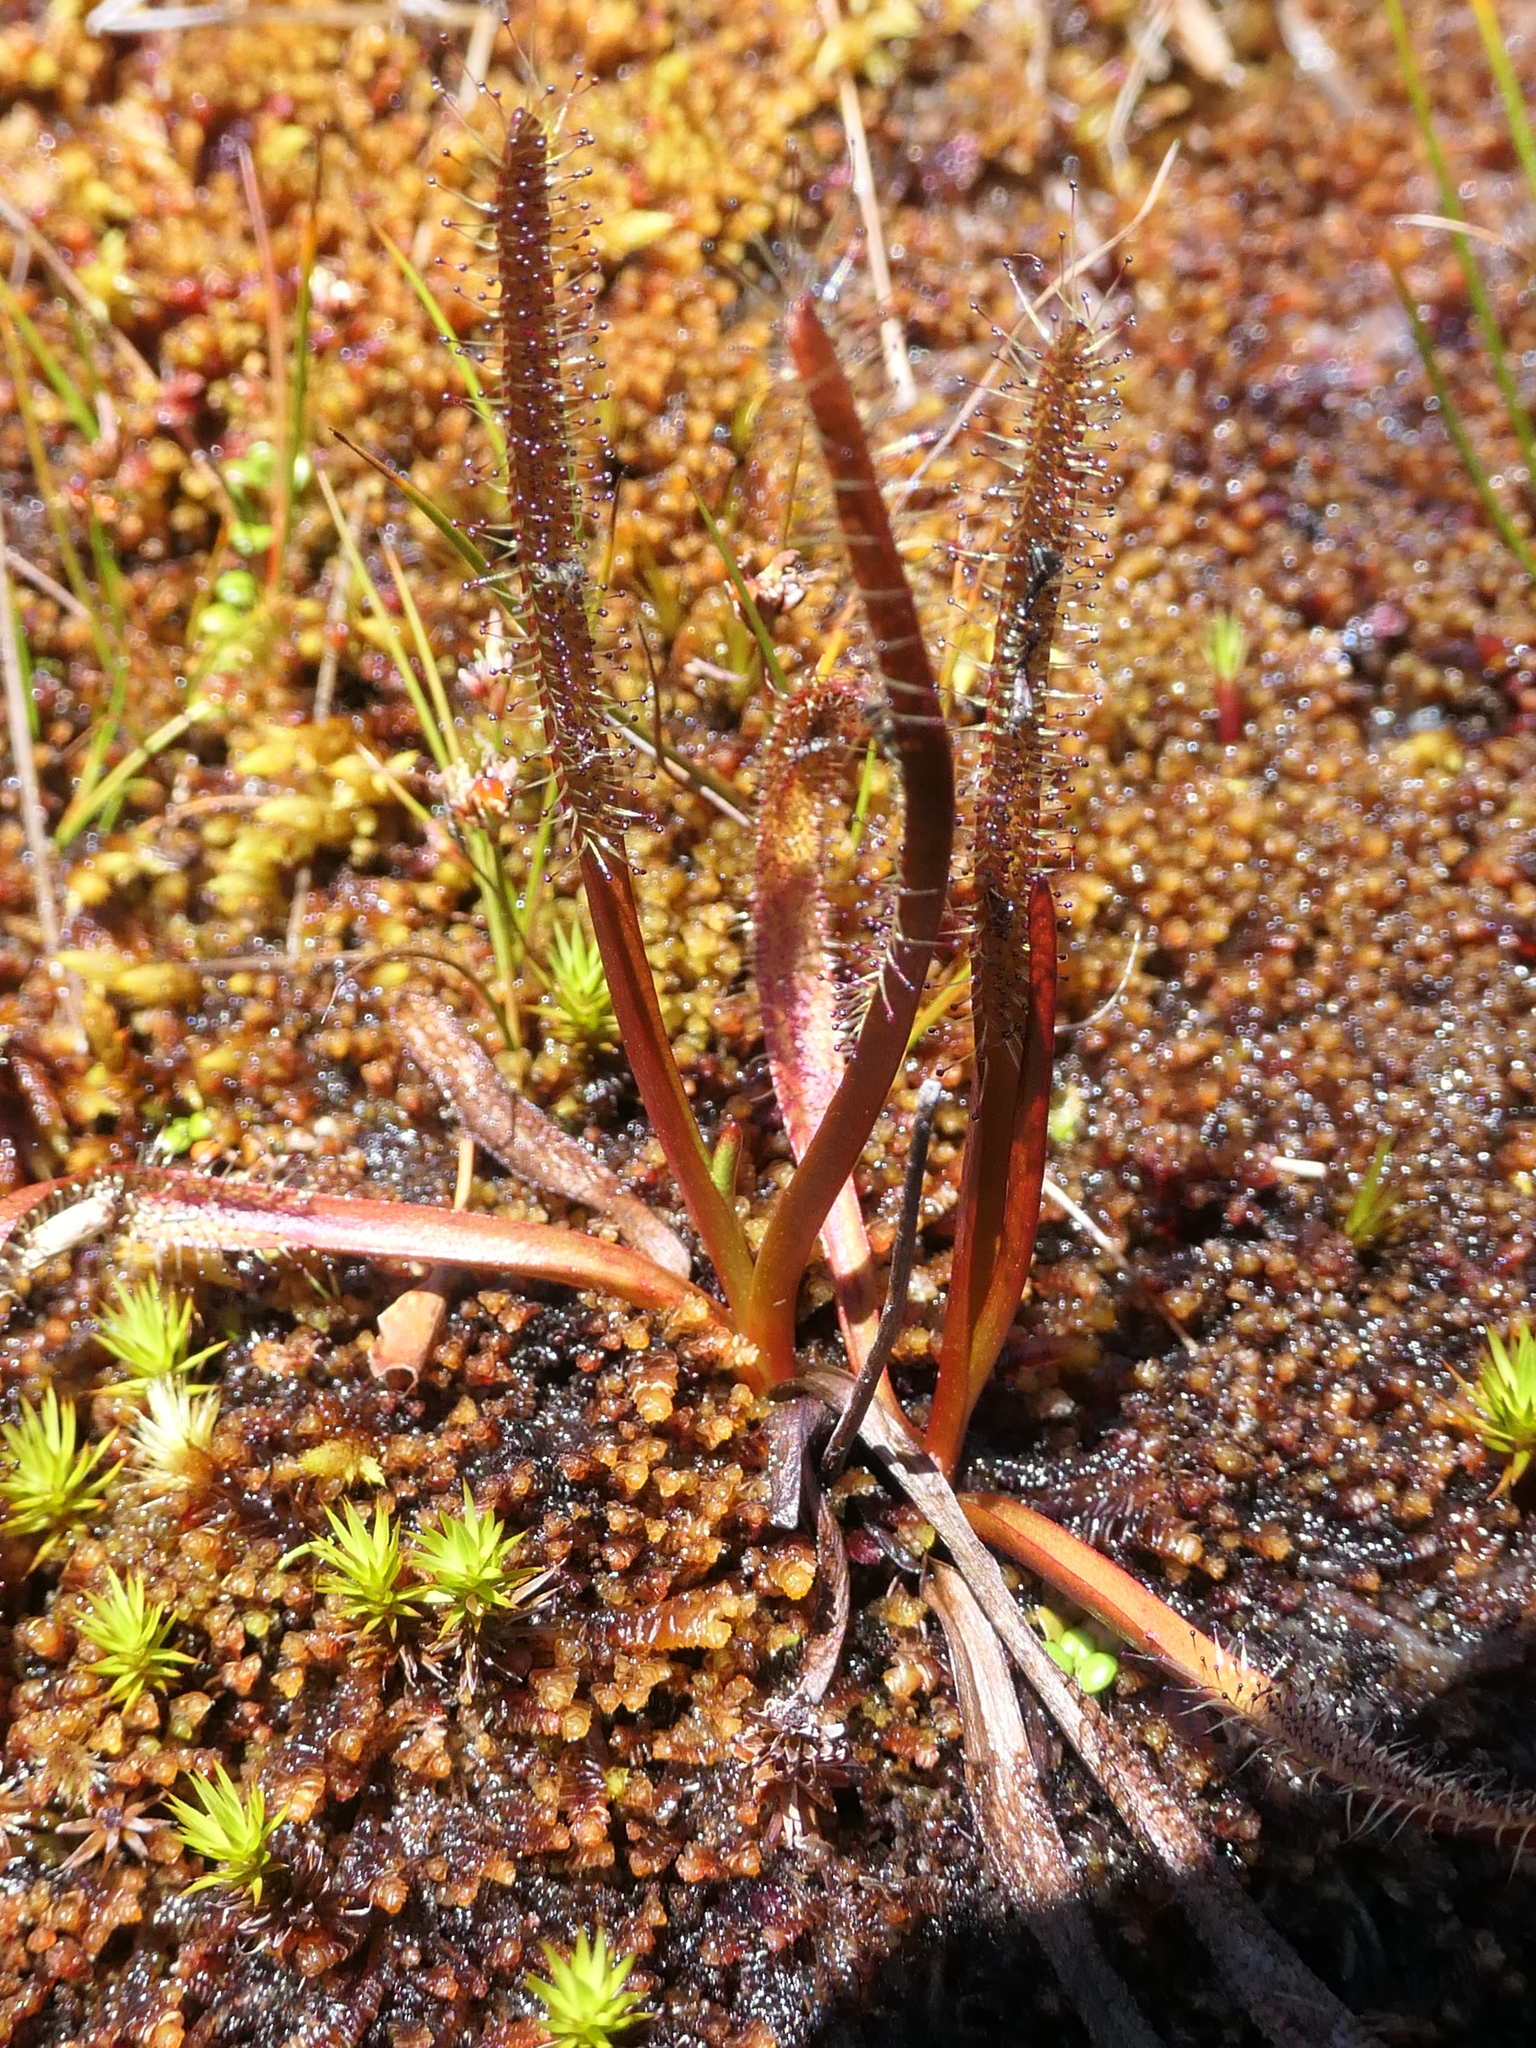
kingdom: Plantae
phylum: Tracheophyta
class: Magnoliopsida
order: Caryophyllales
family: Droseraceae
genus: Drosera
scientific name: Drosera arcturi
